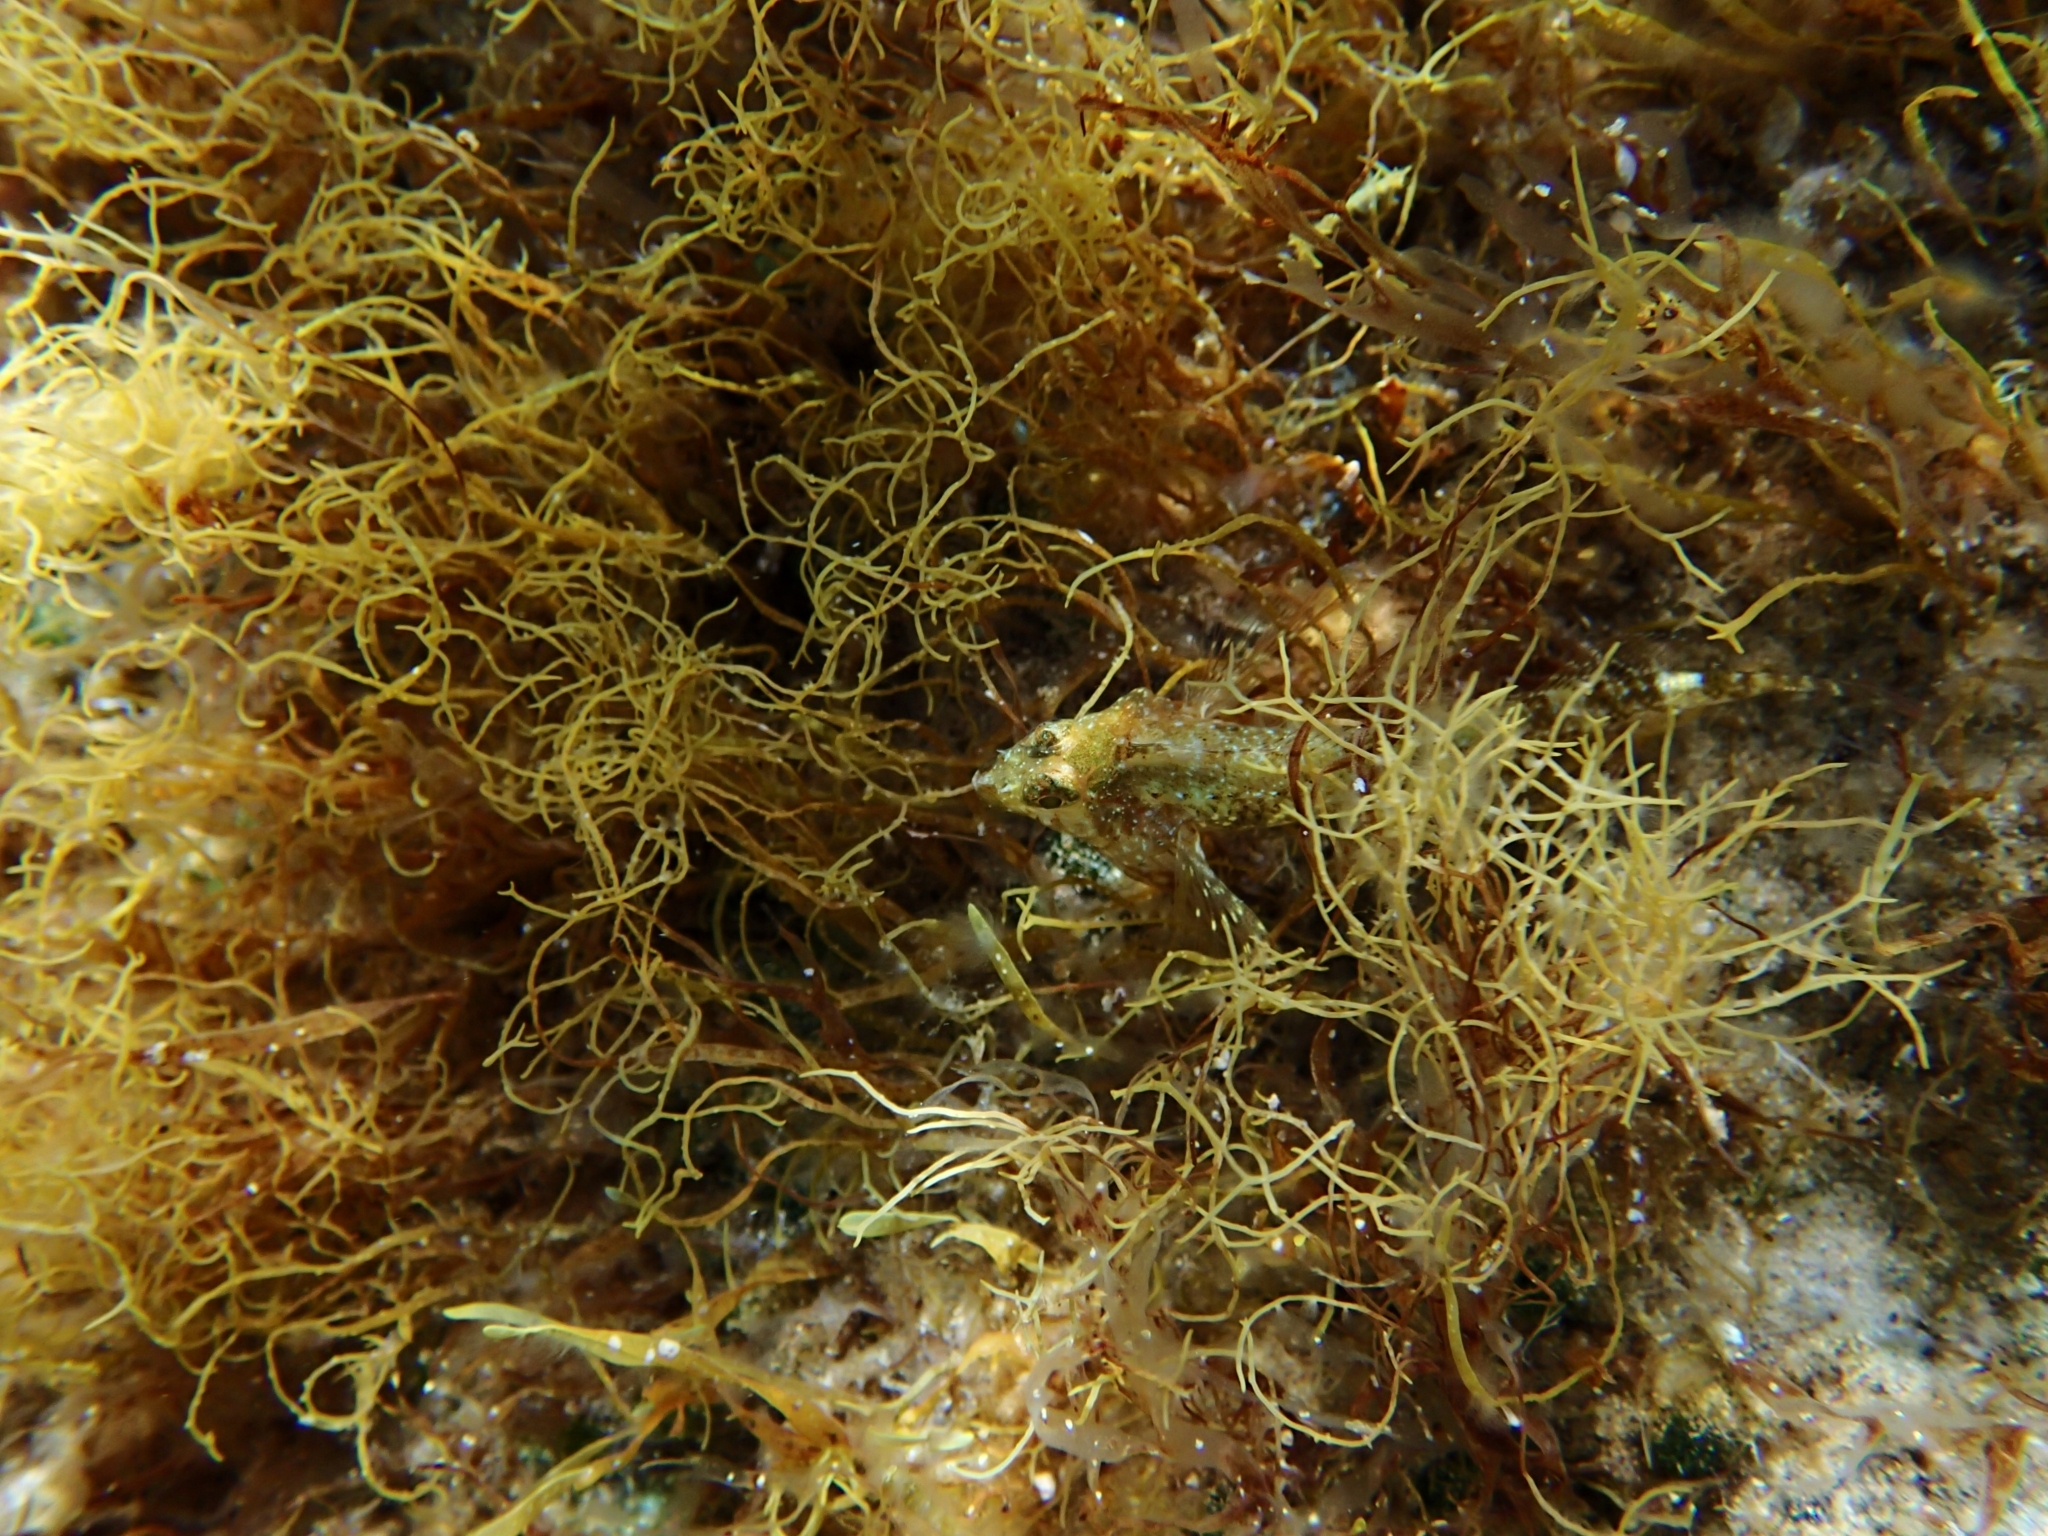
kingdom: Animalia
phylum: Chordata
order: Perciformes
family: Tripterygiidae
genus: Tripterygion
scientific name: Tripterygion tripteronotum
